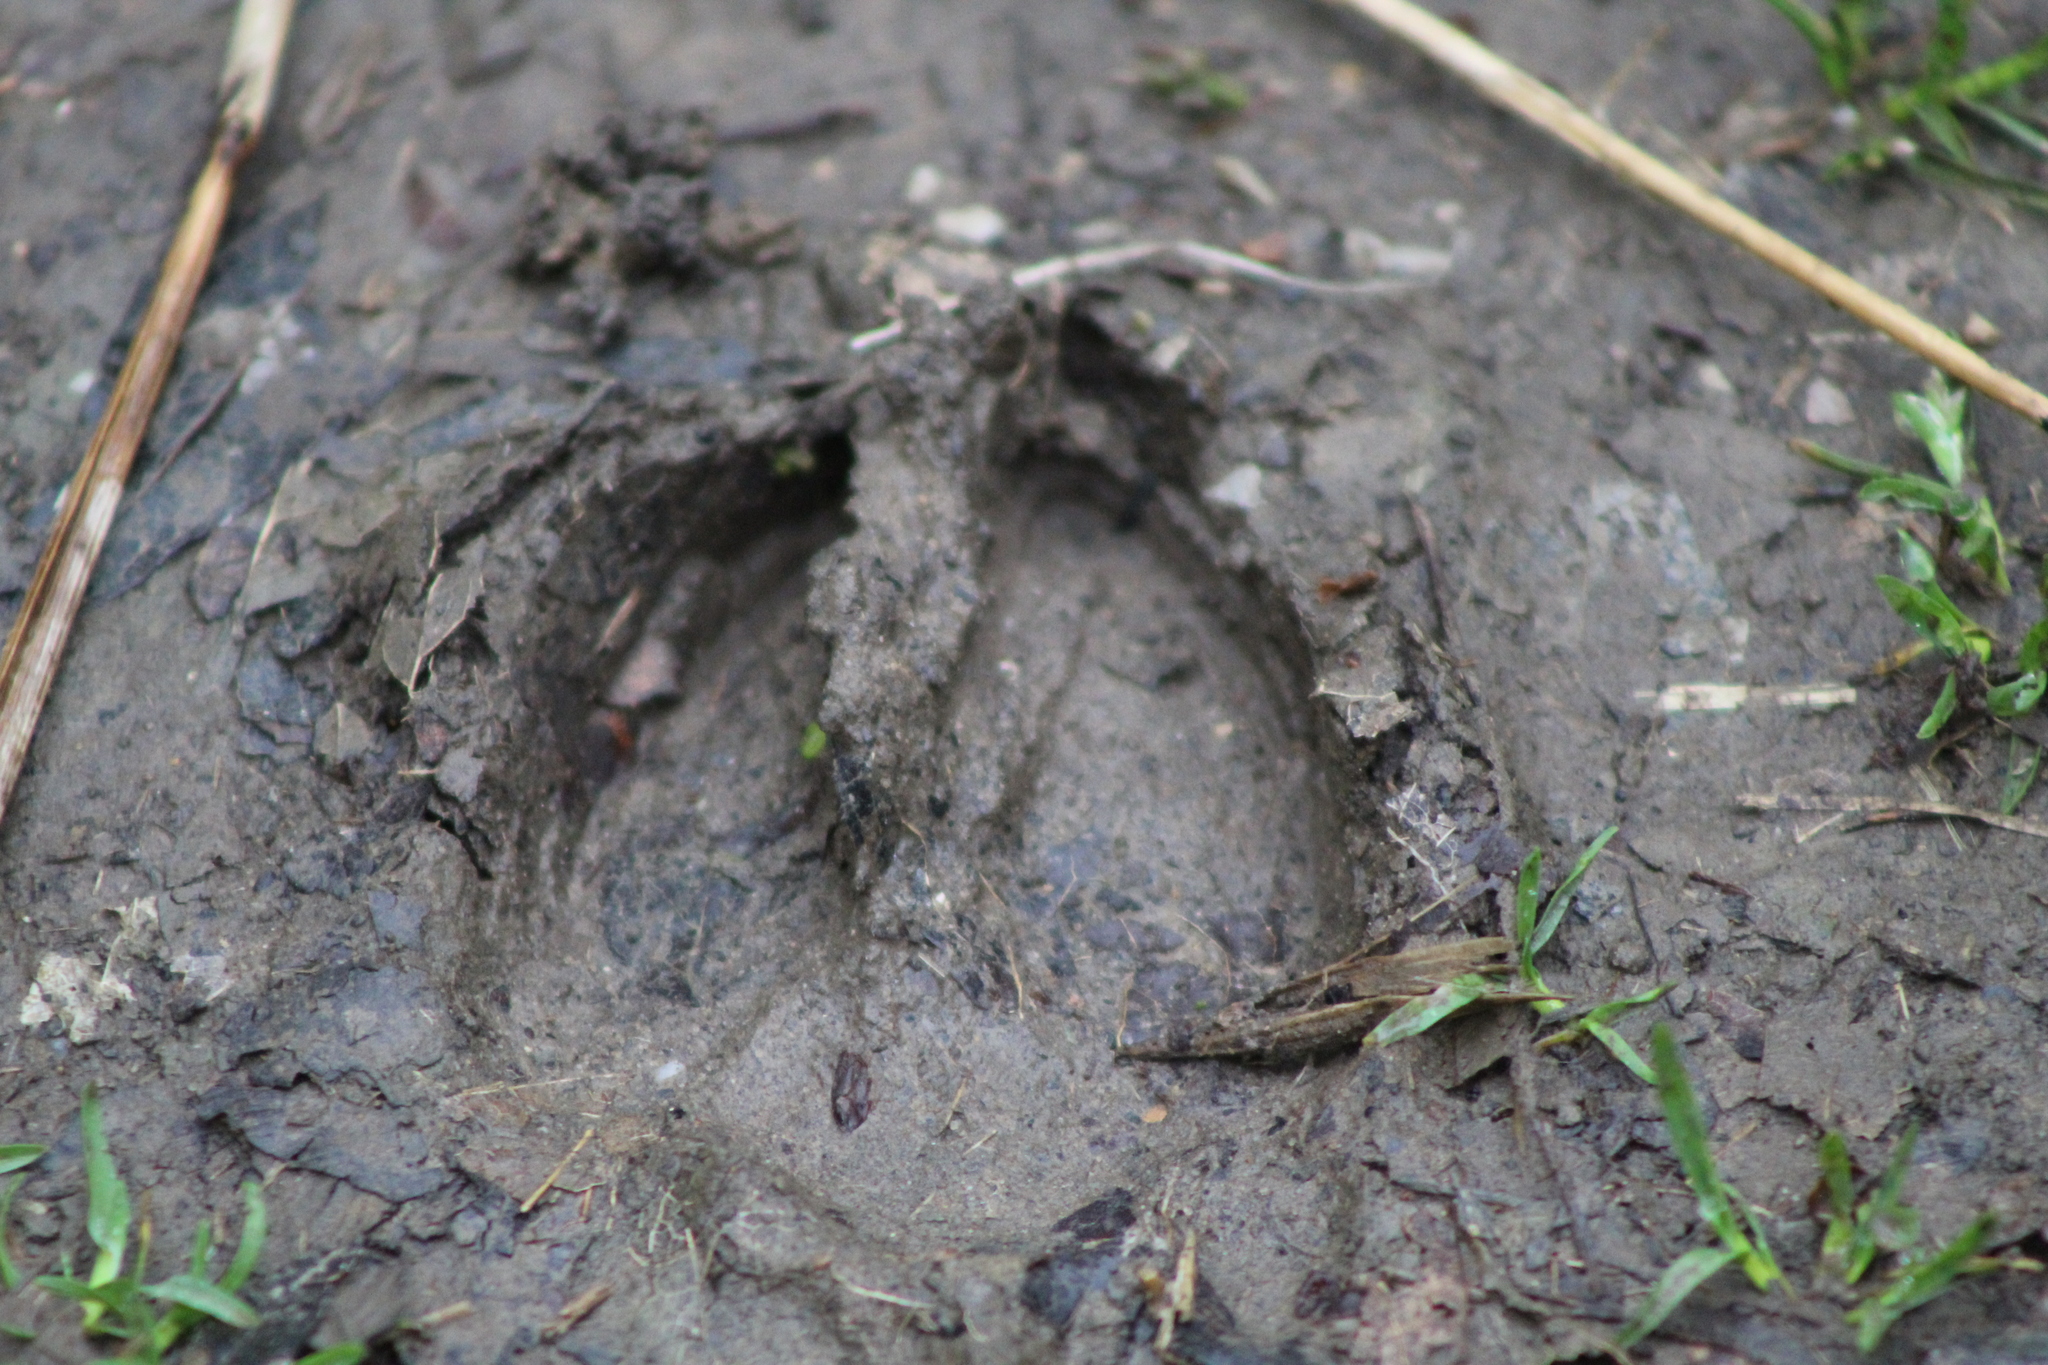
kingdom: Animalia
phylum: Chordata
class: Mammalia
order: Artiodactyla
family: Cervidae
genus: Odocoileus
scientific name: Odocoileus virginianus
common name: White-tailed deer
